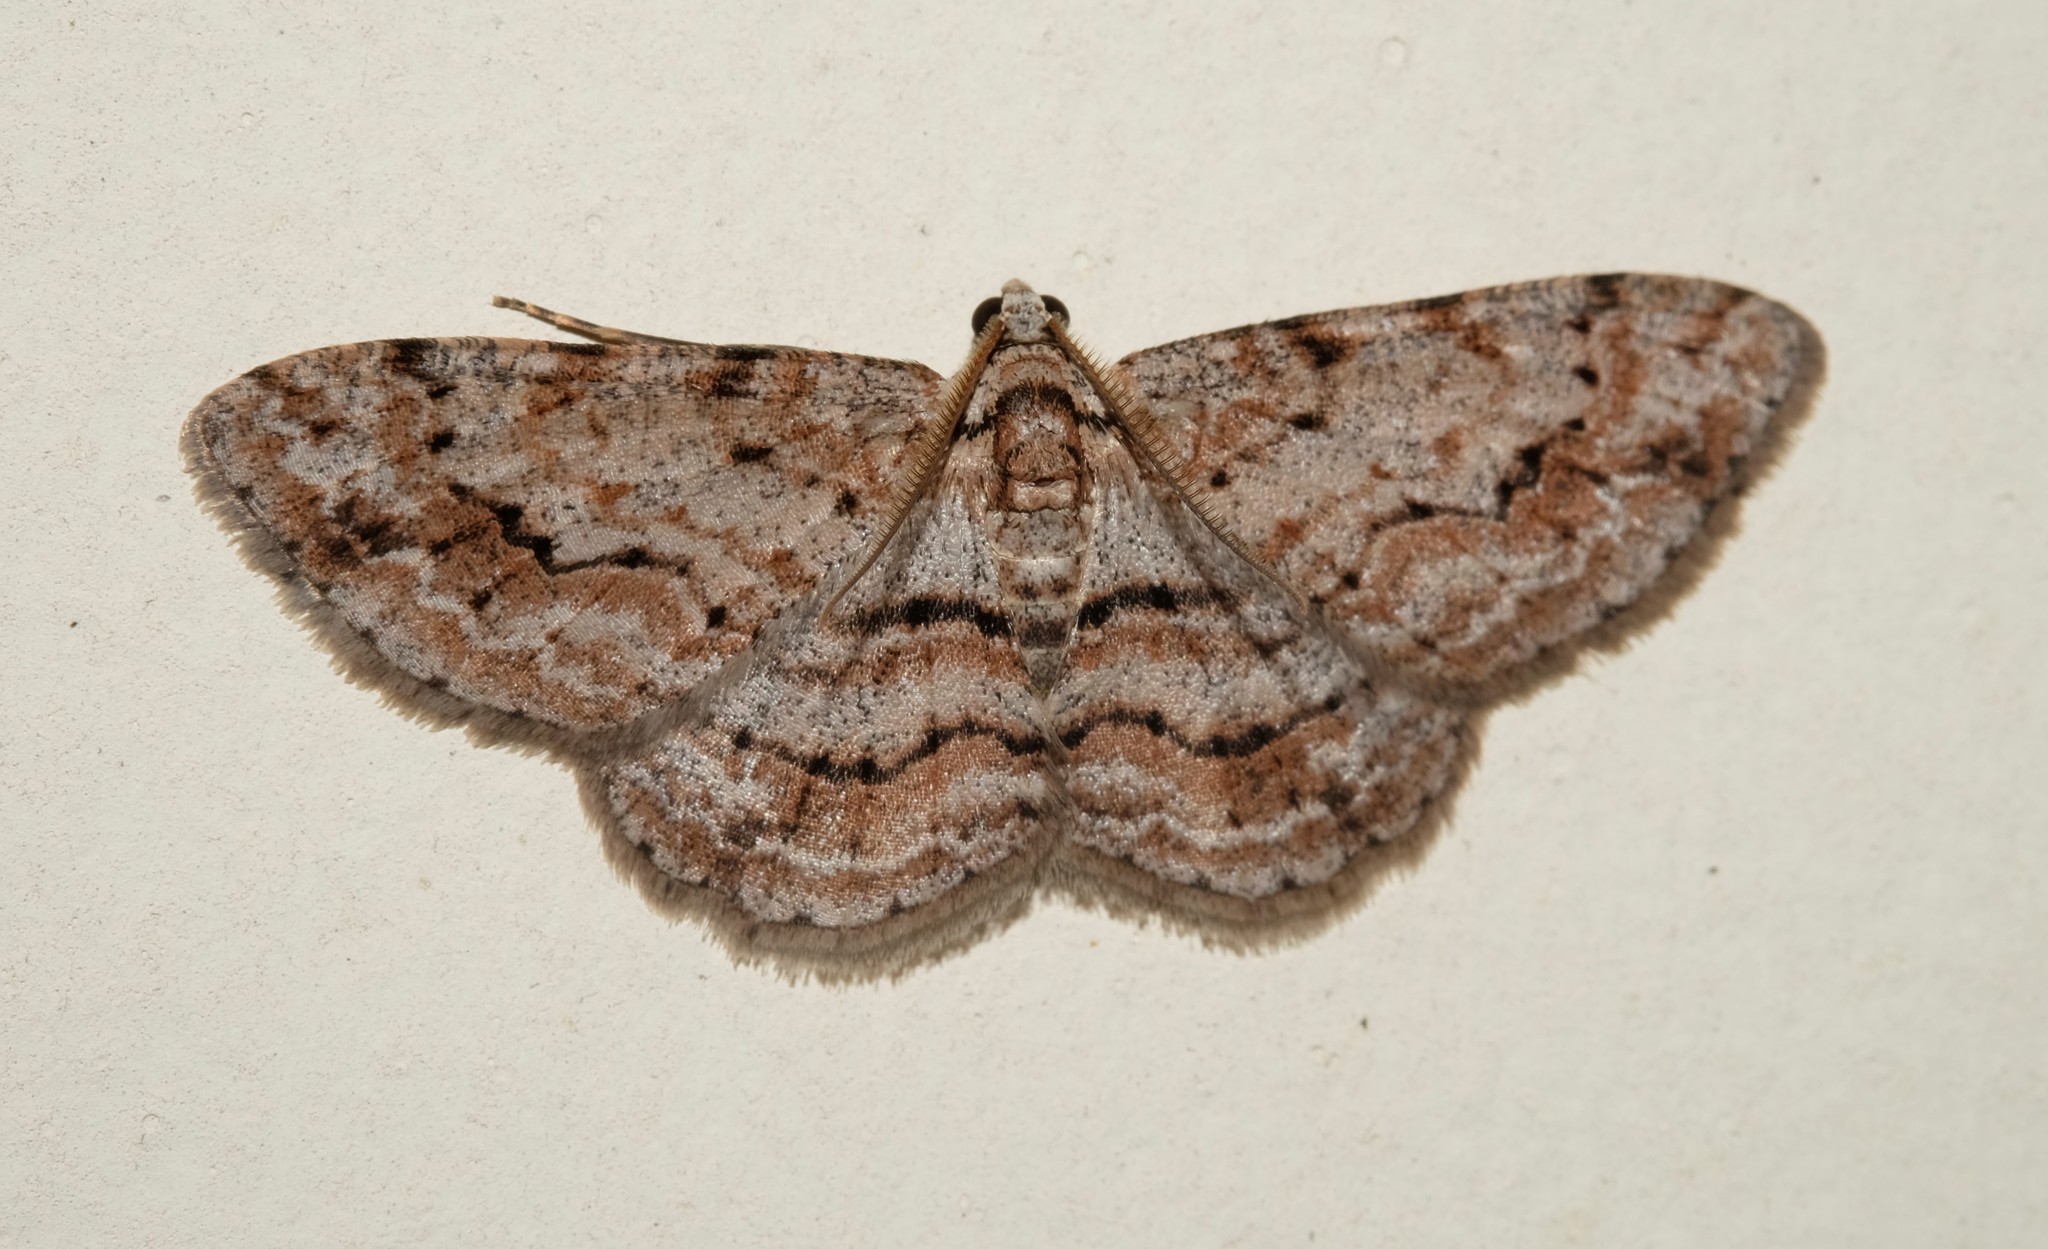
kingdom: Animalia
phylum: Arthropoda
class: Insecta
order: Lepidoptera
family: Geometridae
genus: Didymoctenia
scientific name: Didymoctenia exsuperata
